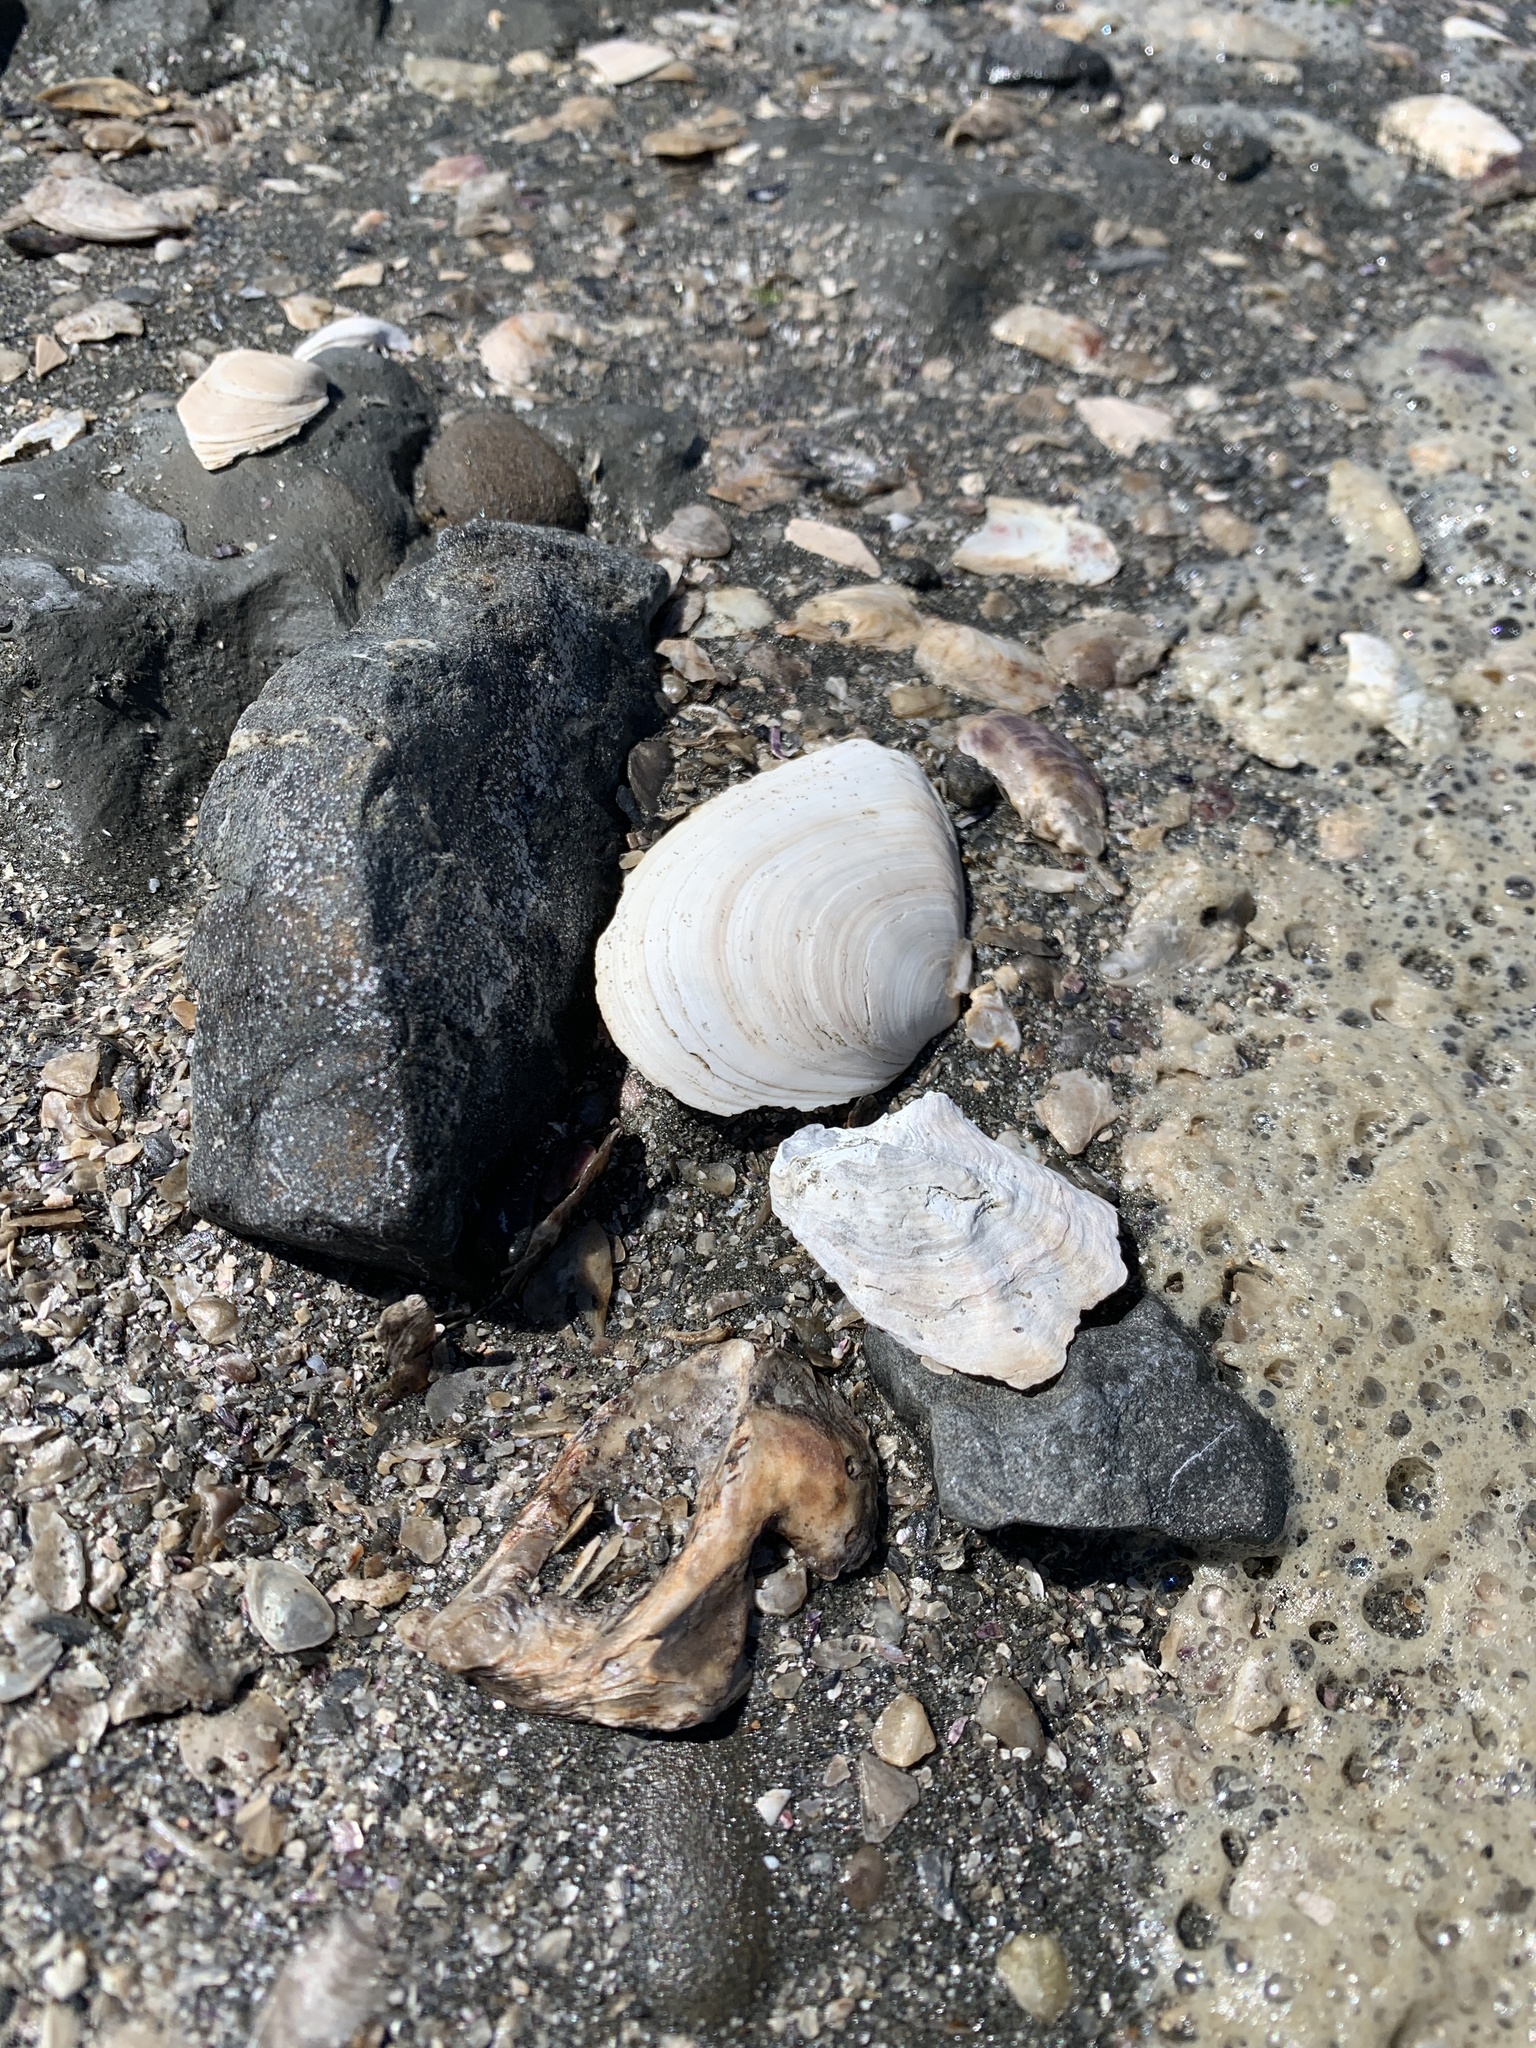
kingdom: Animalia
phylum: Mollusca
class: Bivalvia
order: Cardiida
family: Tellinidae
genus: Macoma
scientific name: Macoma nasuta
